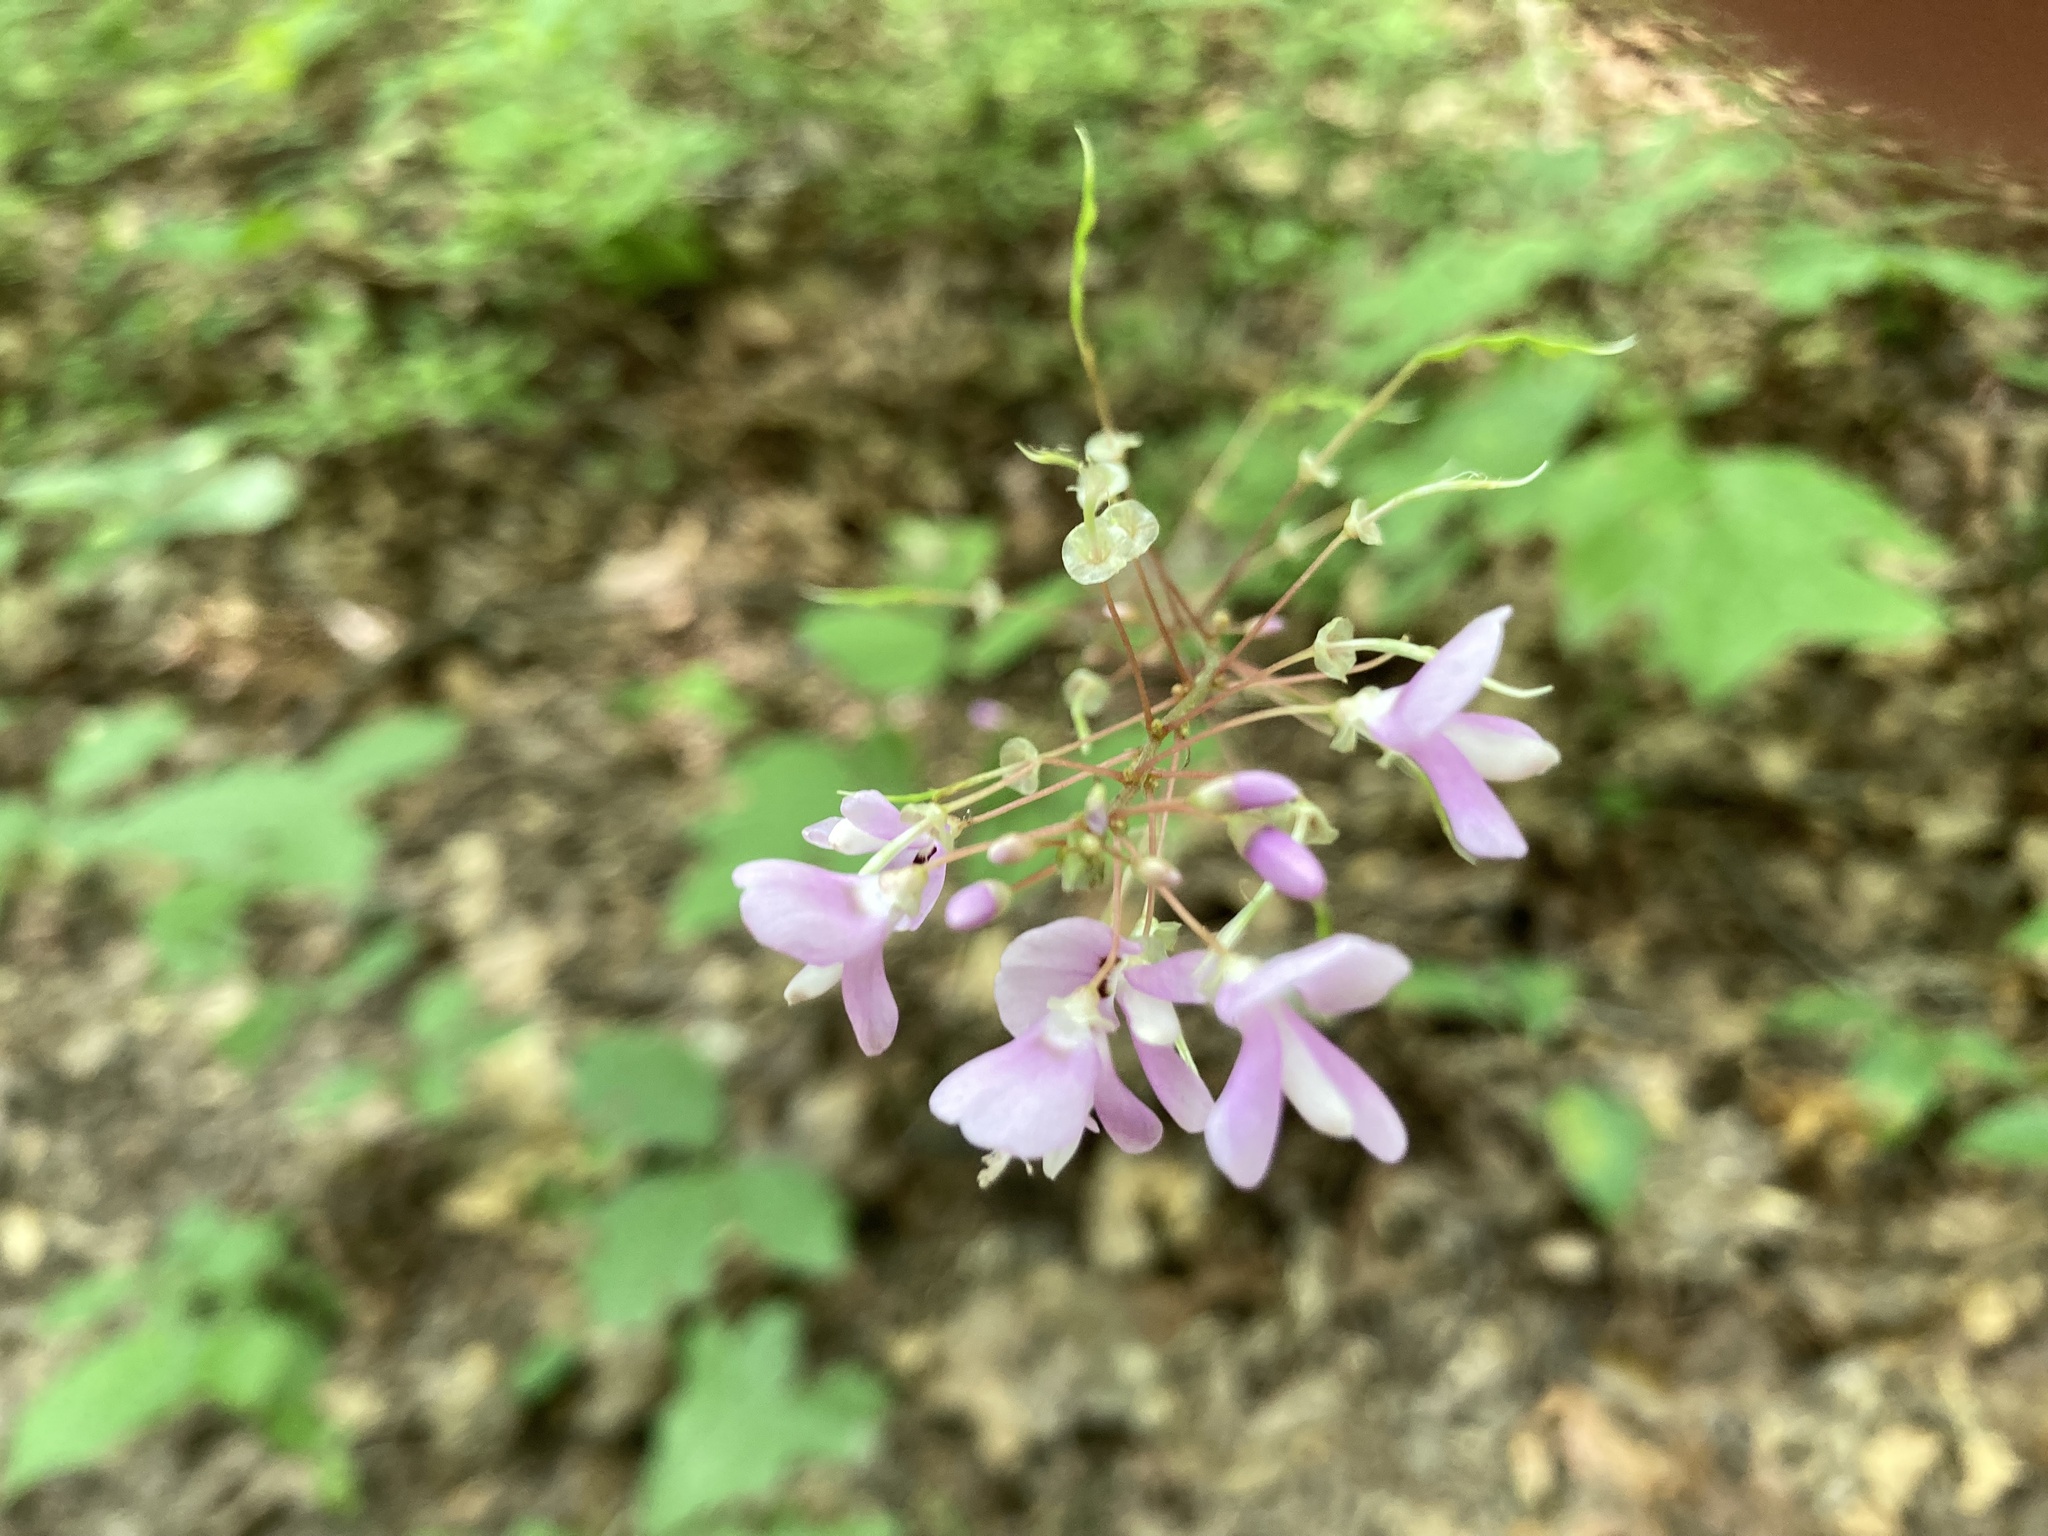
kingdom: Plantae
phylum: Tracheophyta
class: Magnoliopsida
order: Fabales
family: Fabaceae
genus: Hylodesmum
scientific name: Hylodesmum nudiflorum
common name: Bare-stemmed tick-trefoil
